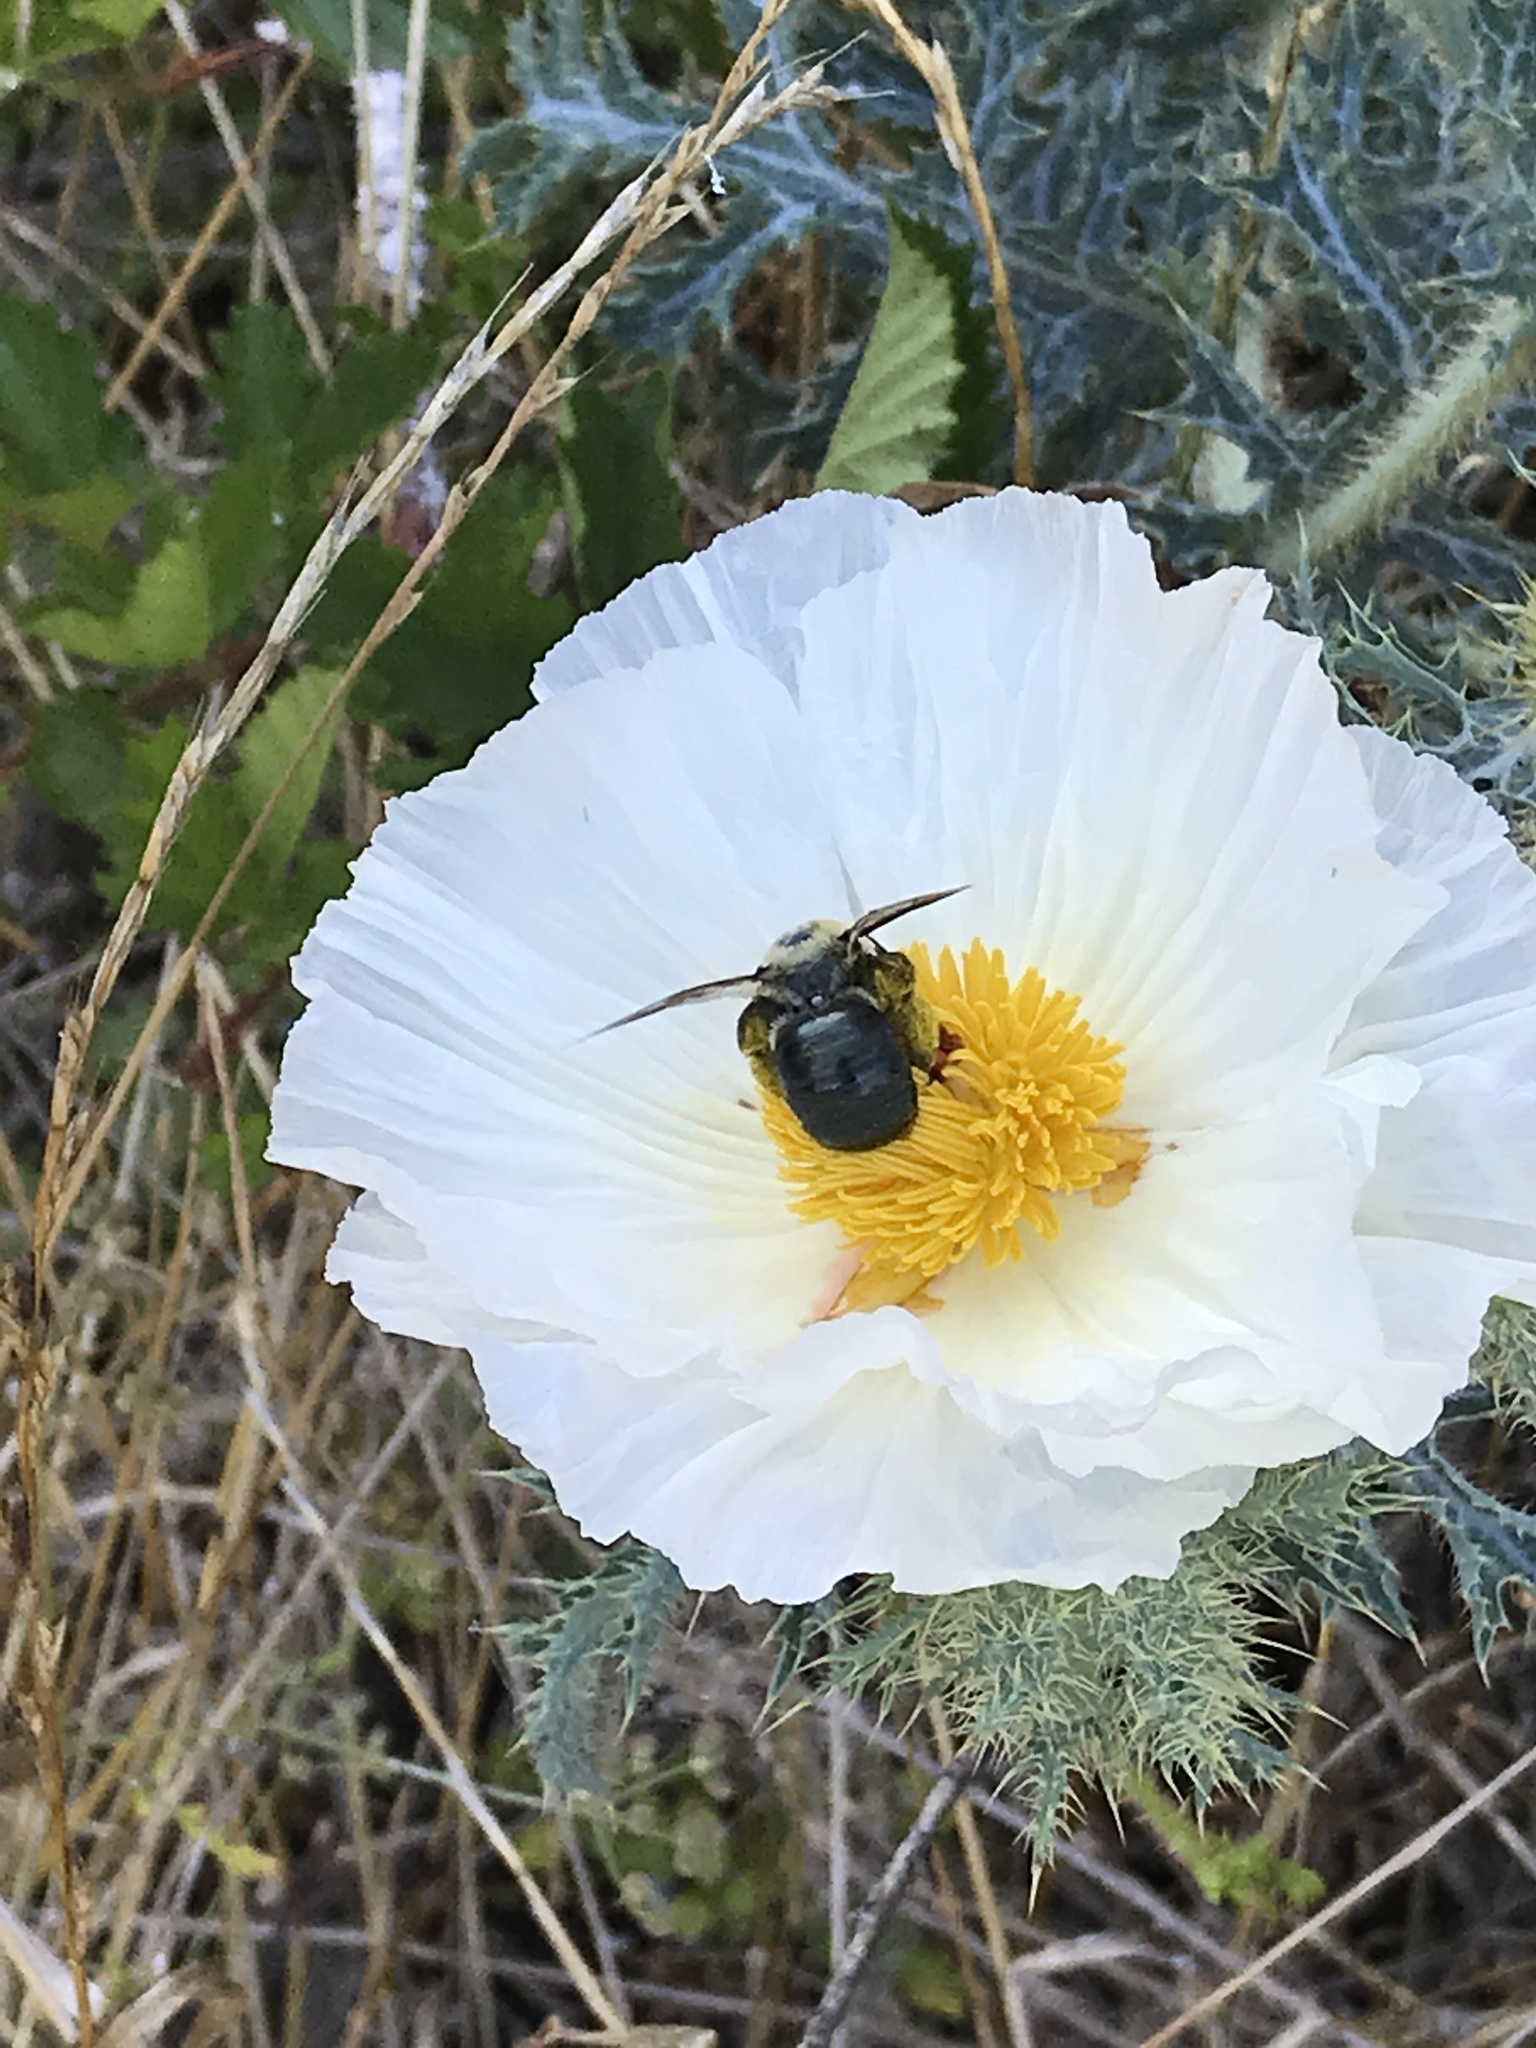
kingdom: Animalia
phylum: Arthropoda
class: Insecta
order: Hymenoptera
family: Apidae
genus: Xylocopa
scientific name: Xylocopa virginica
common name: Carpenter bee
